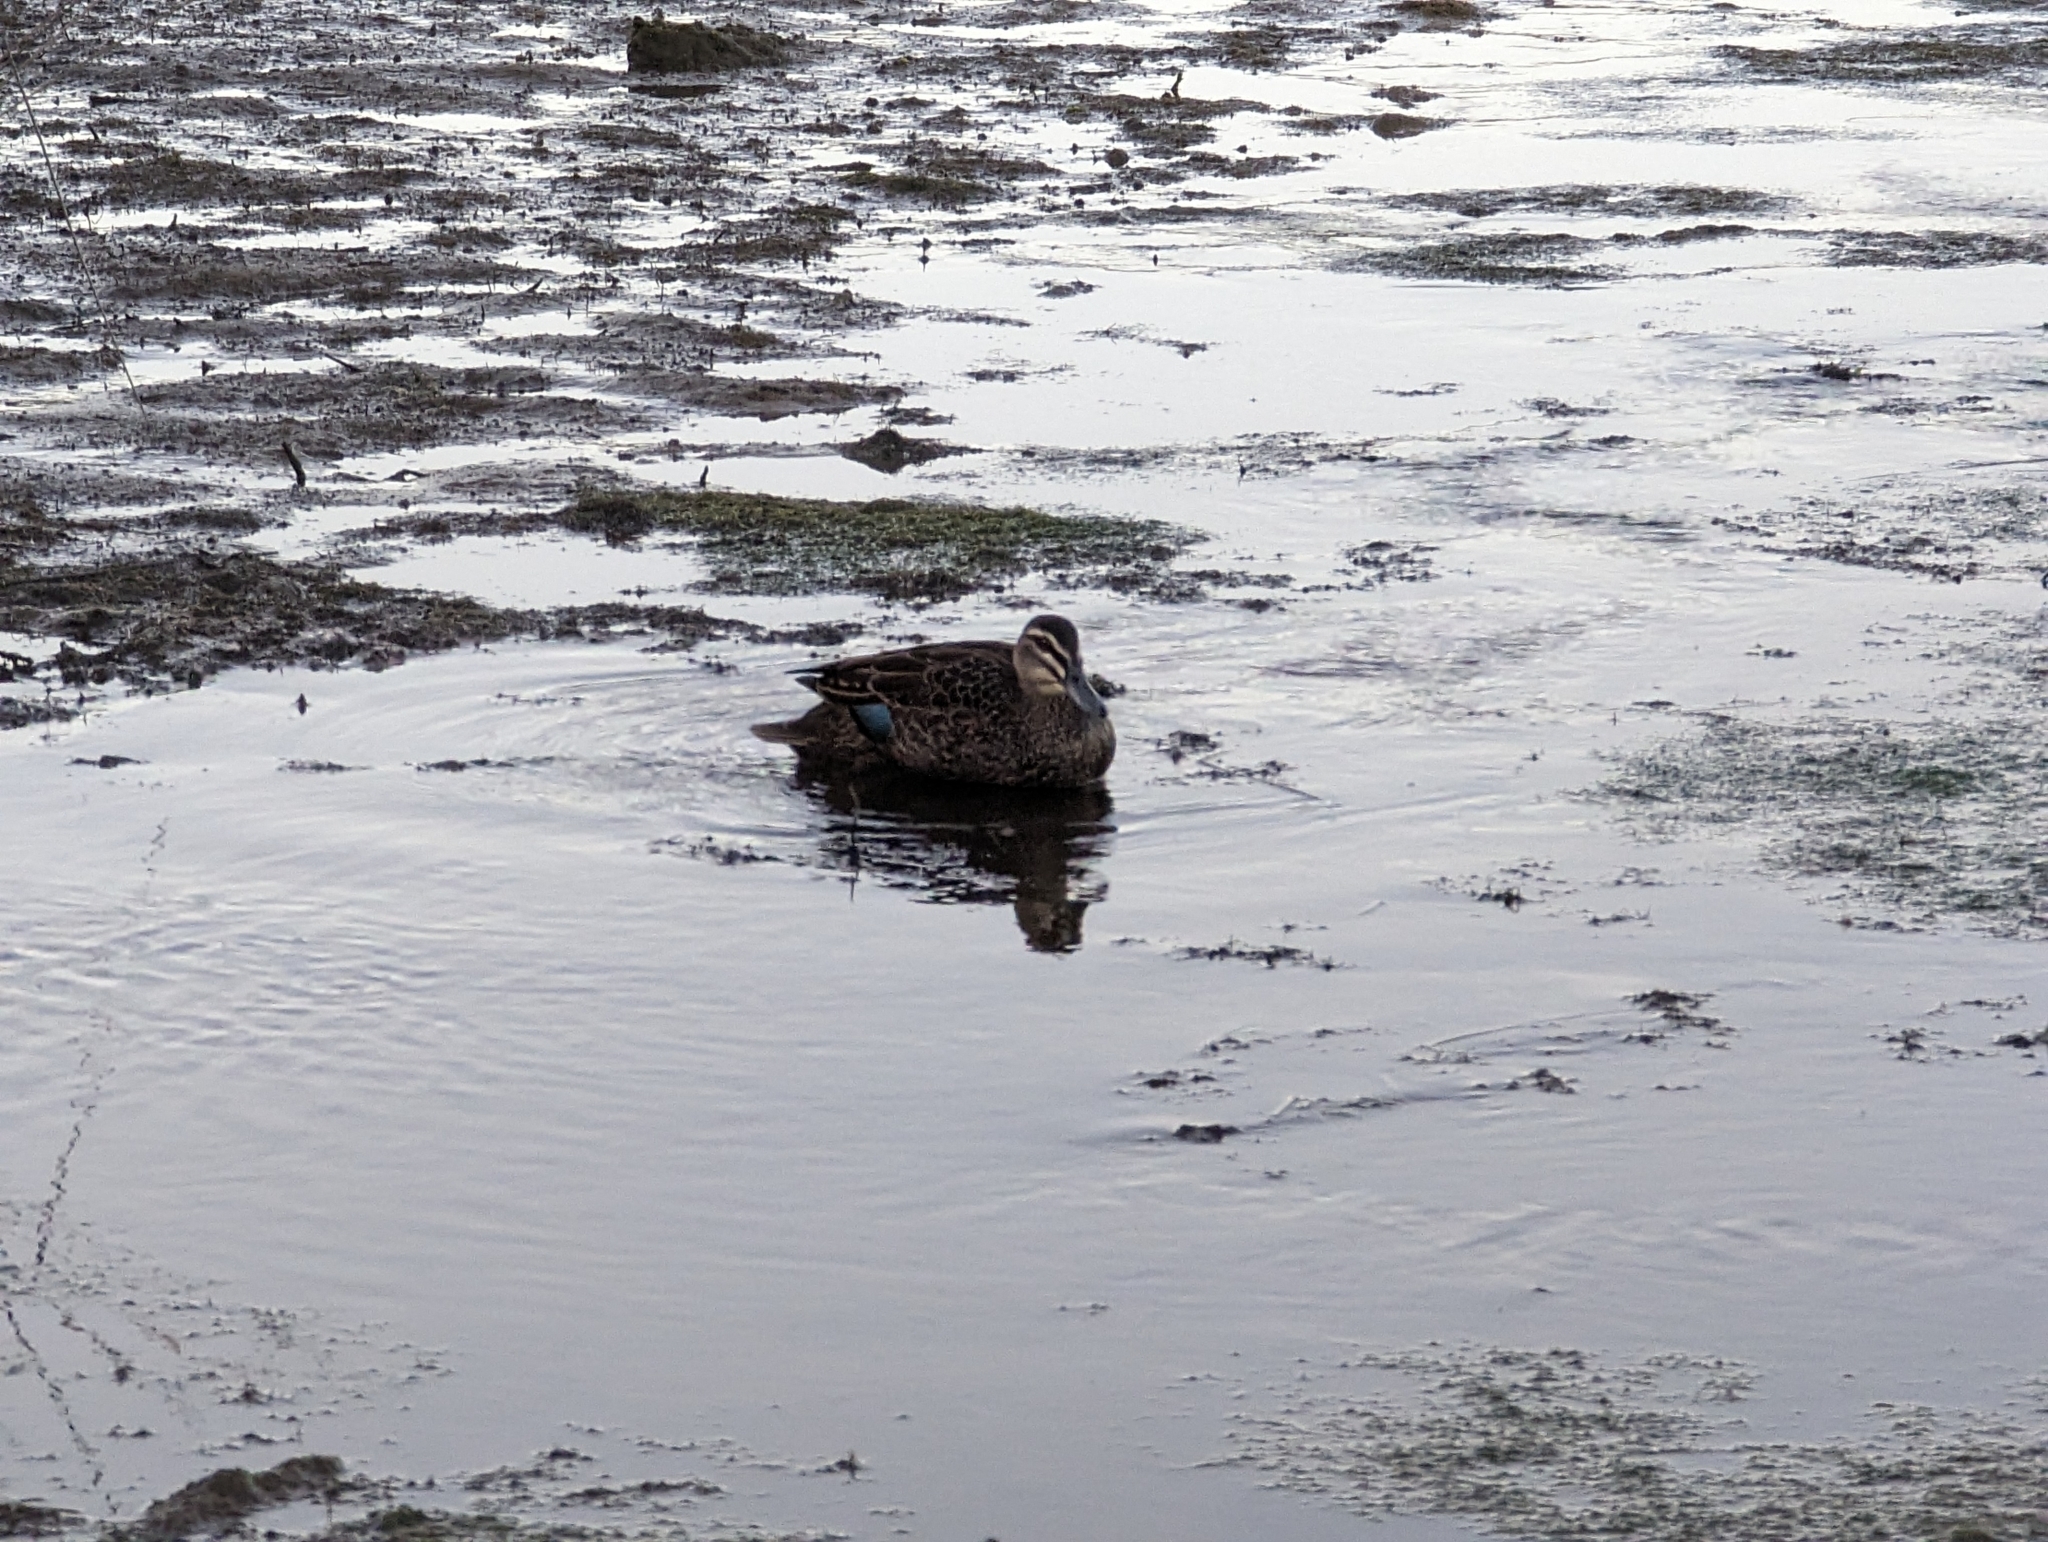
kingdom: Animalia
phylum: Chordata
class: Aves
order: Anseriformes
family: Anatidae
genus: Anas
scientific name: Anas superciliosa
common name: Pacific black duck
